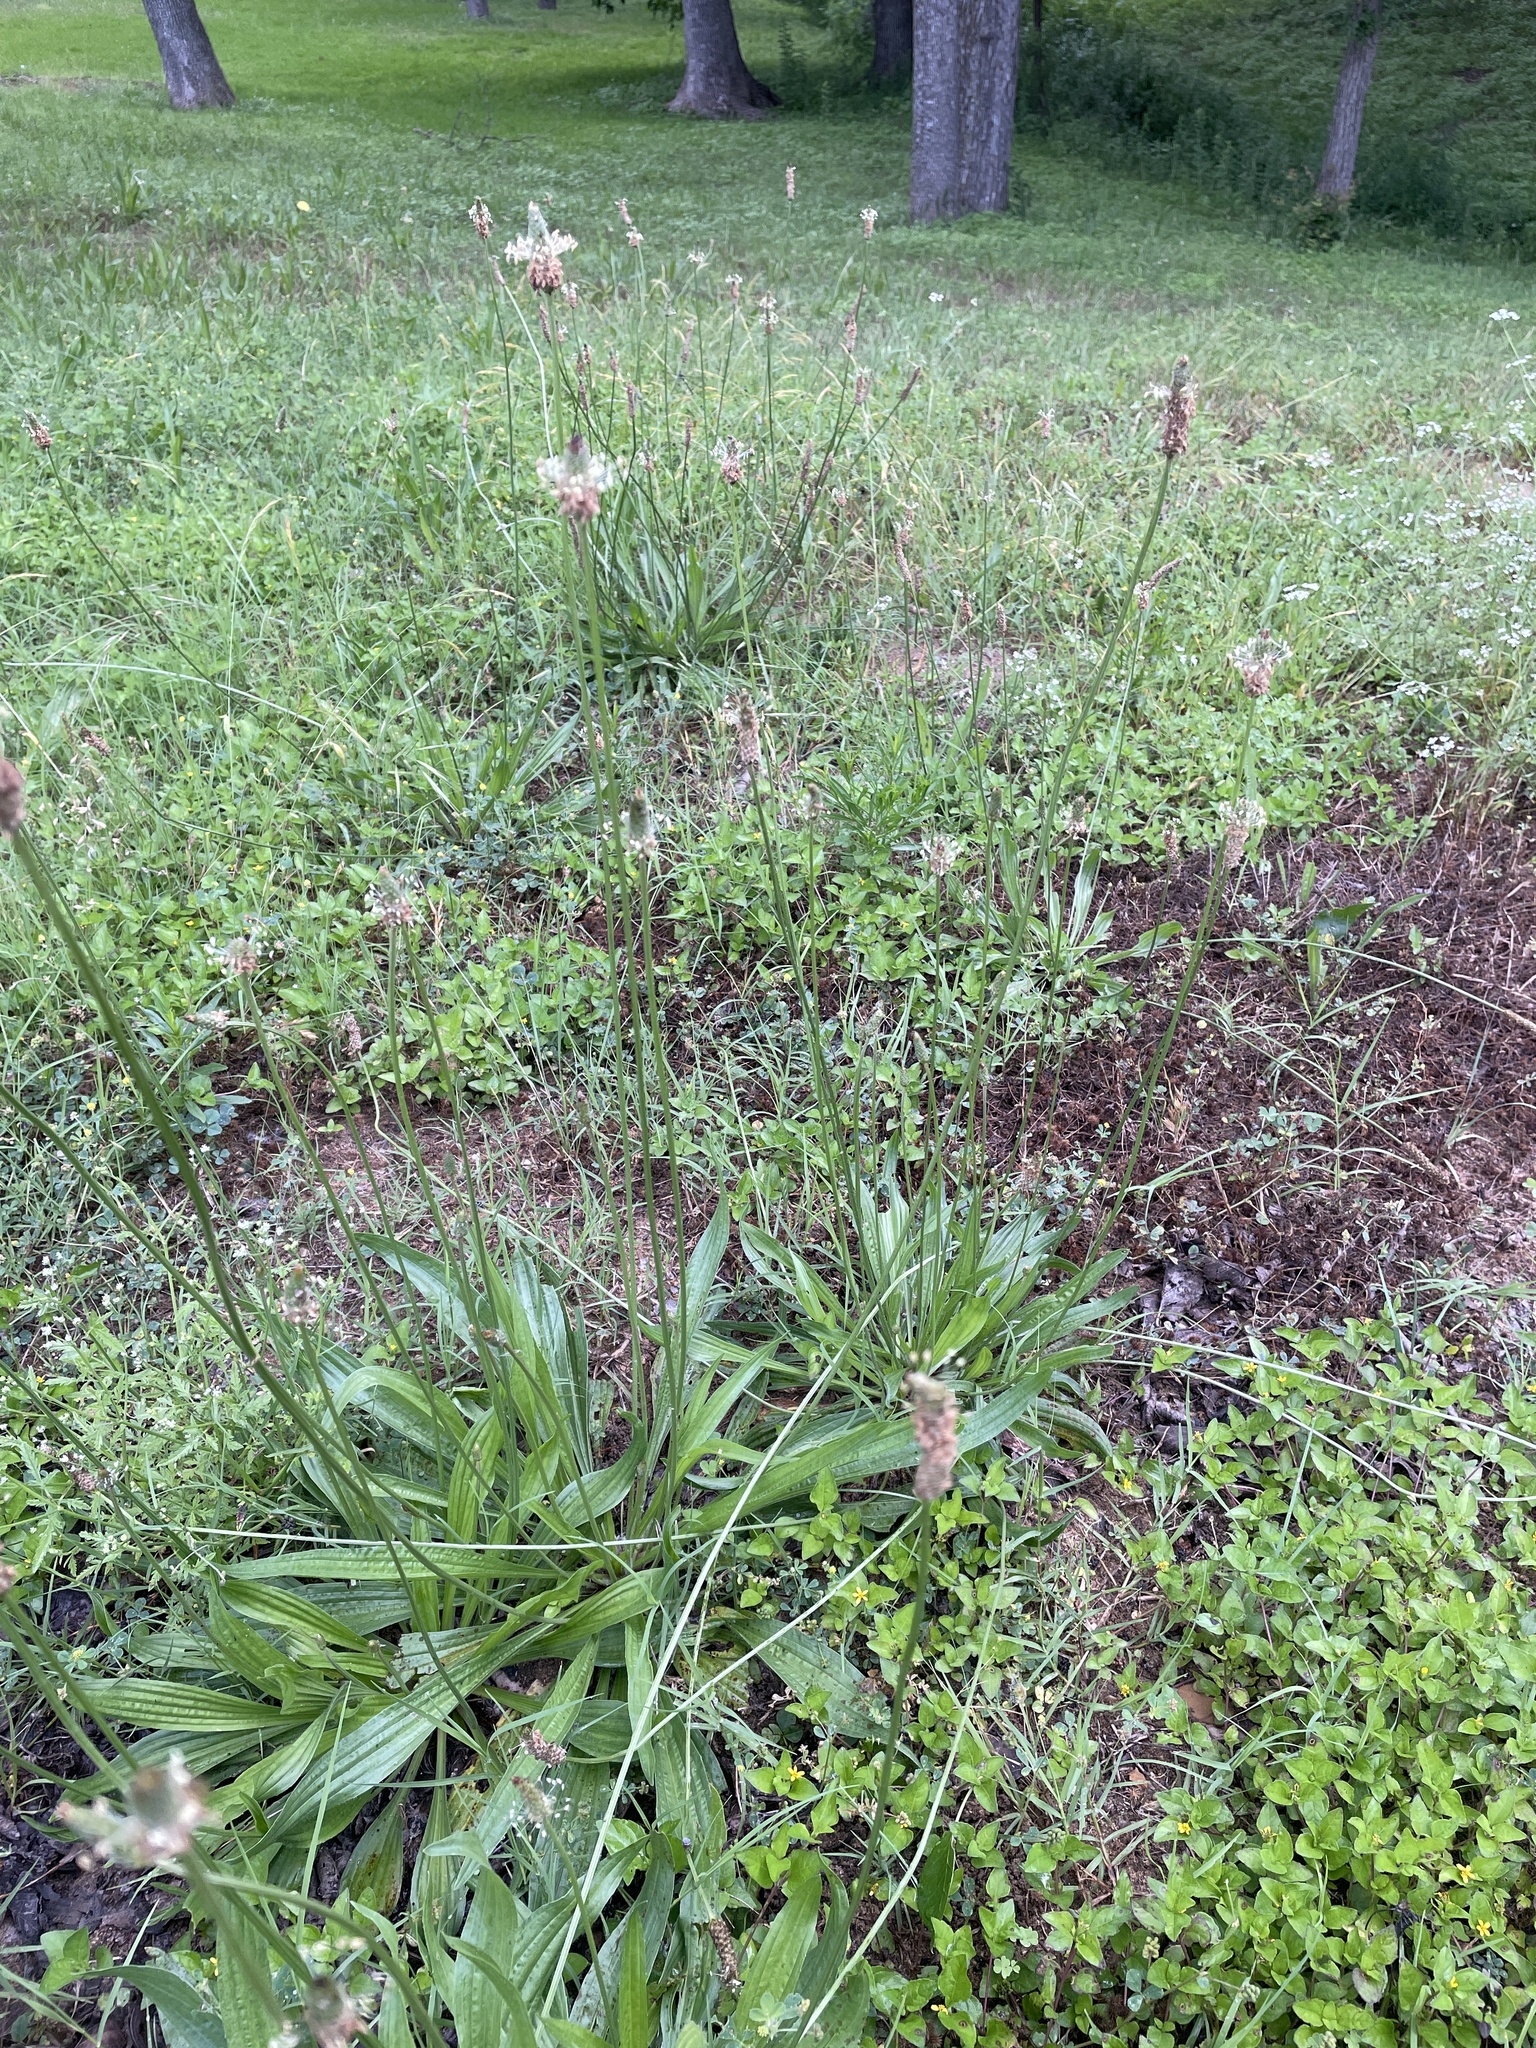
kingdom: Plantae
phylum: Tracheophyta
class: Magnoliopsida
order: Lamiales
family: Plantaginaceae
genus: Plantago
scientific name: Plantago lanceolata
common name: Ribwort plantain
